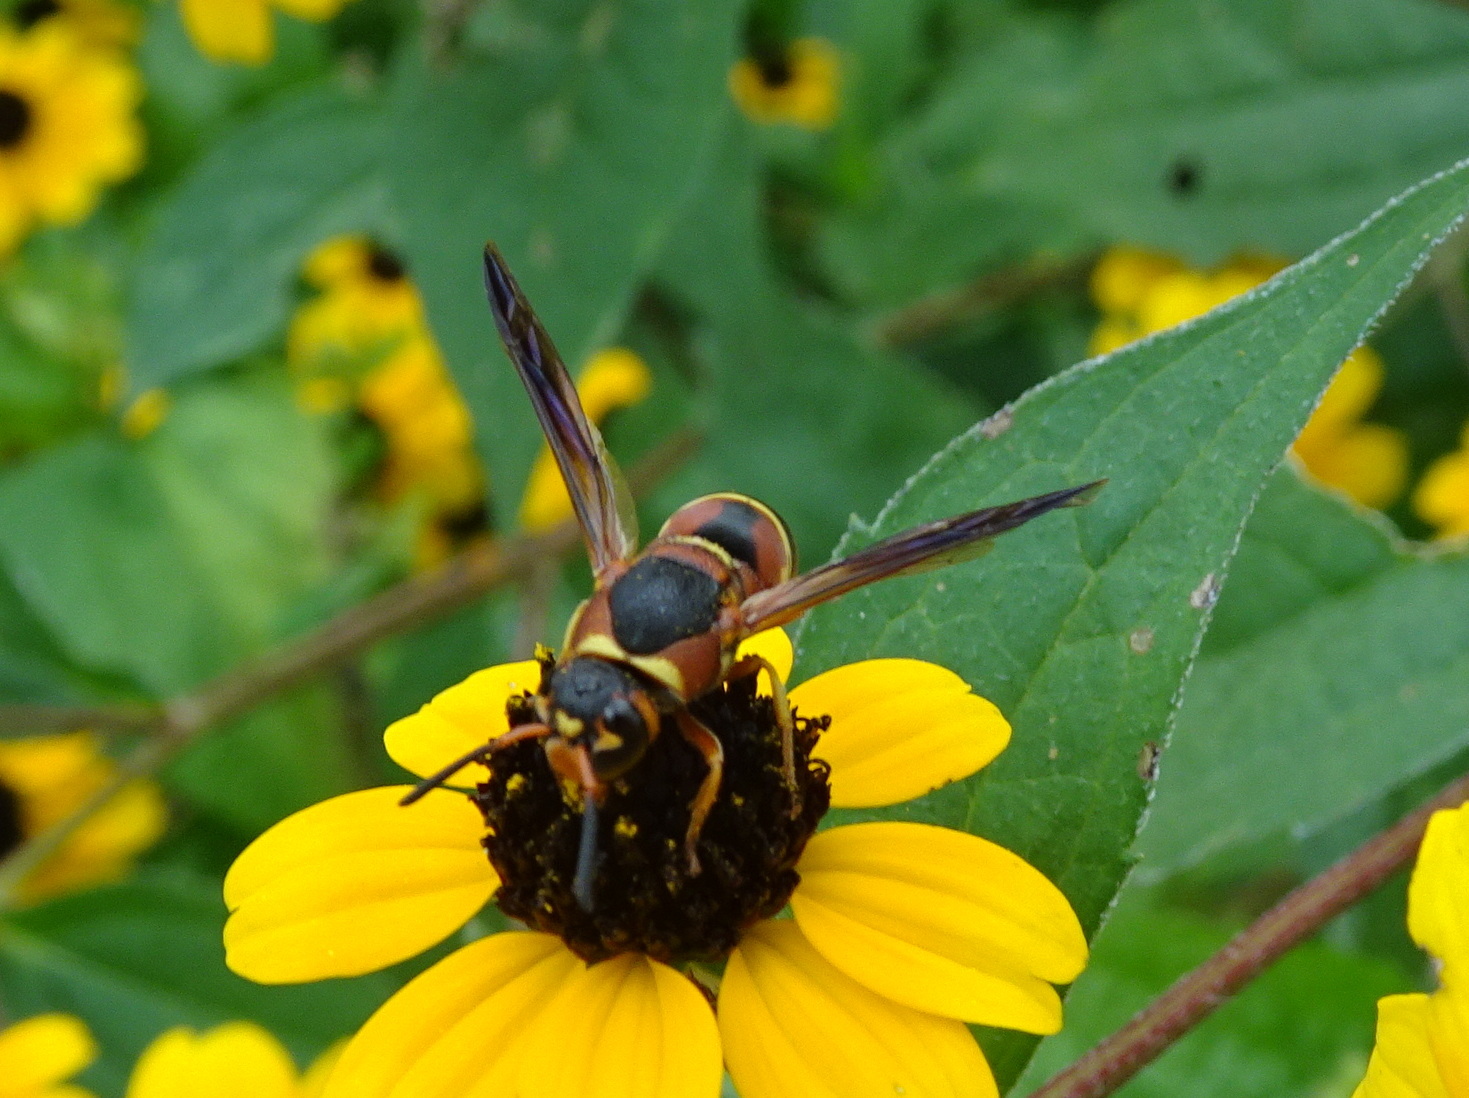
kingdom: Animalia
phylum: Arthropoda
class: Insecta
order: Hymenoptera
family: Eumenidae
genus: Euodynerus
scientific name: Euodynerus hidalgo
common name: Wasp
